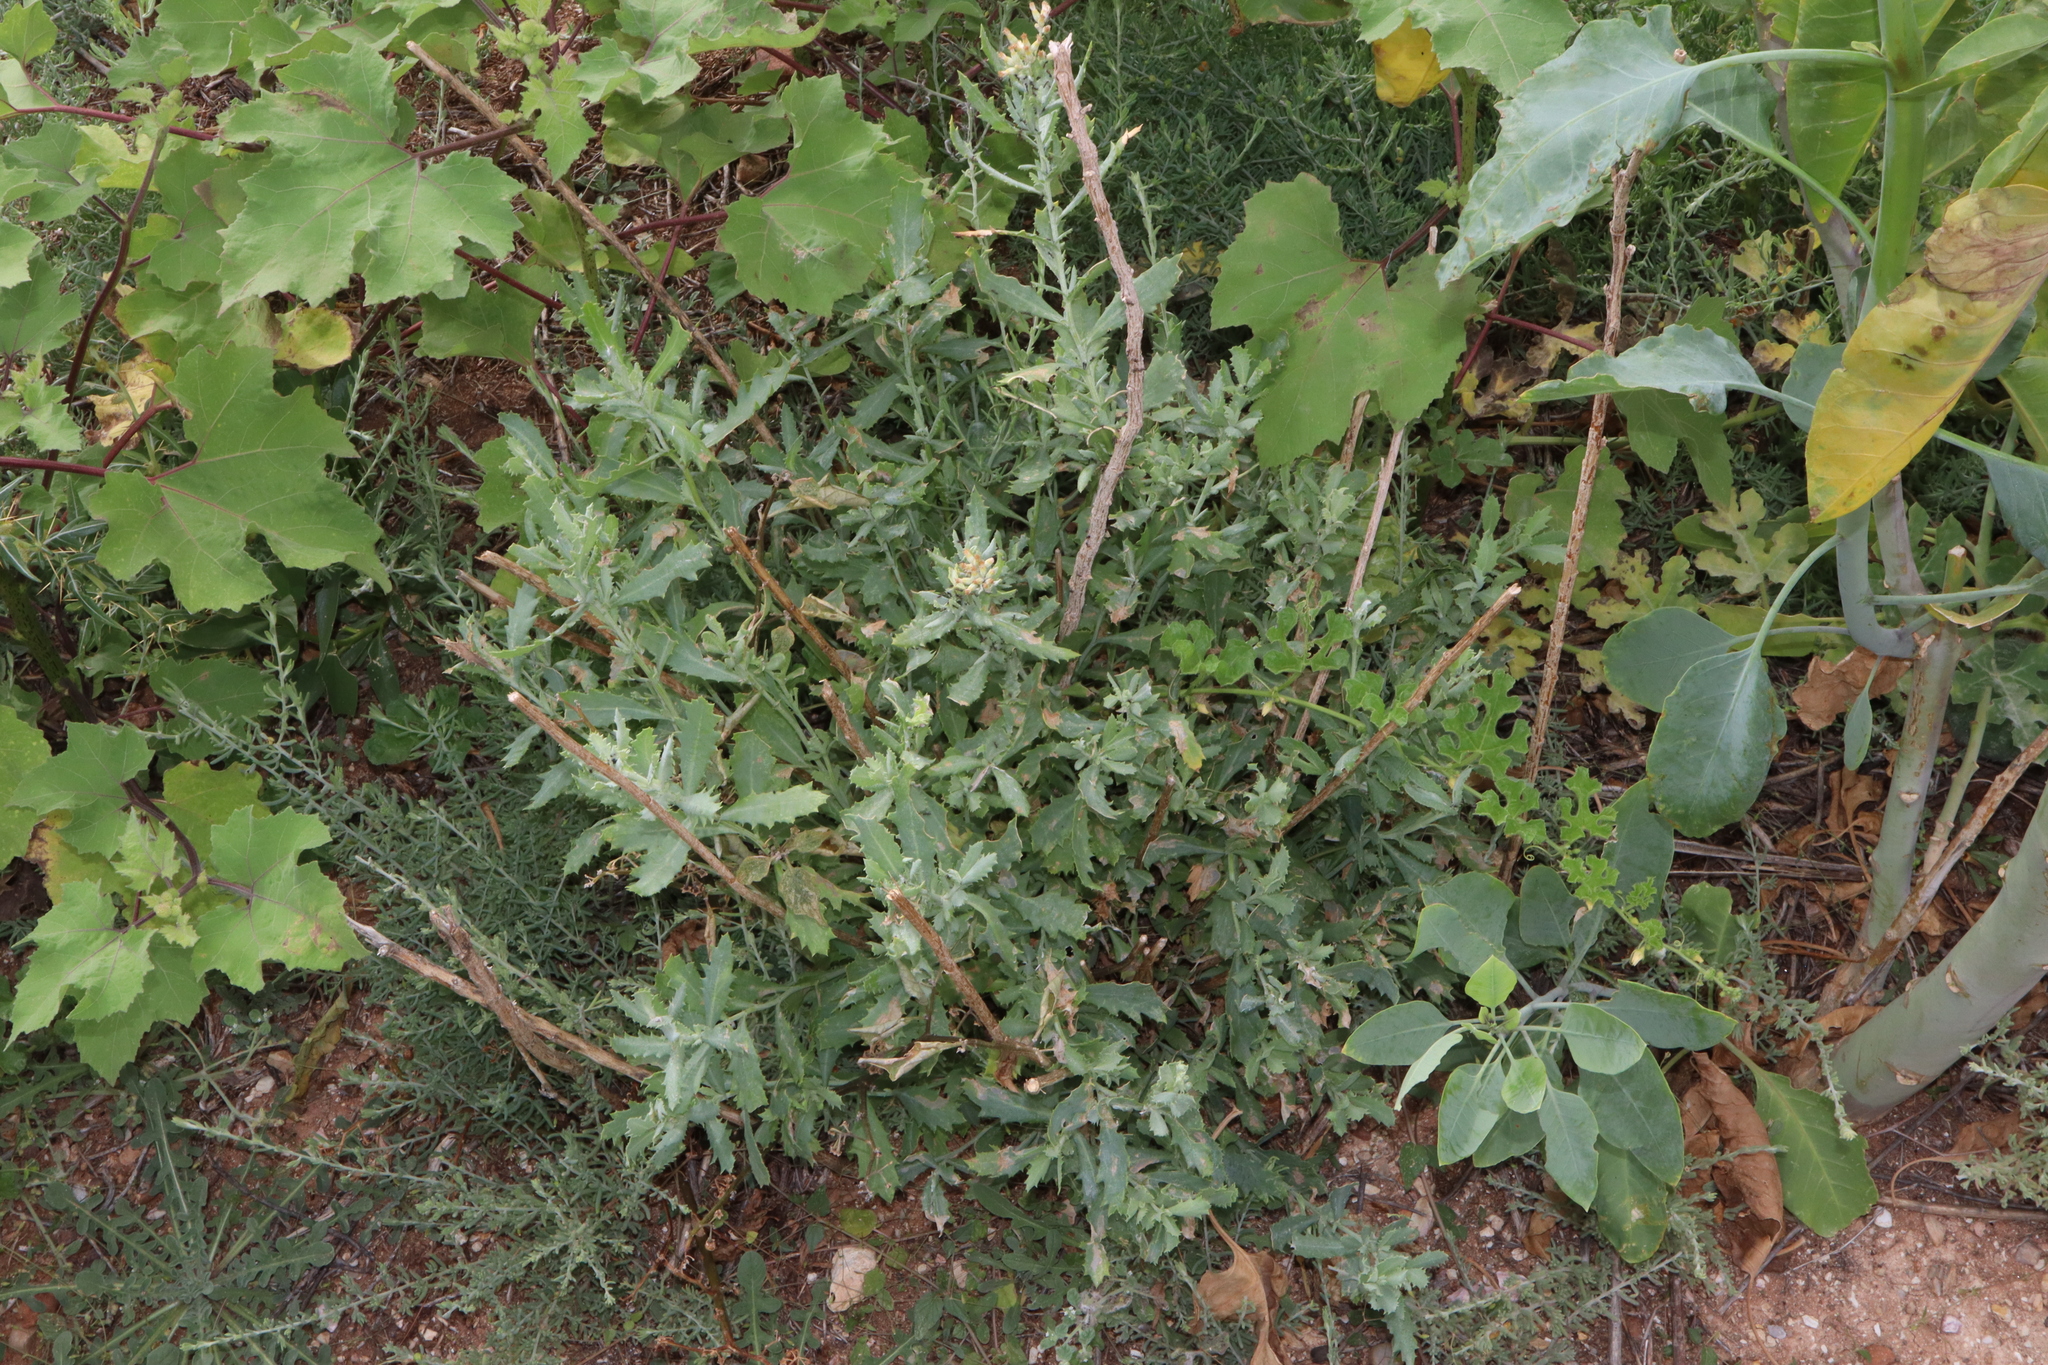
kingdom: Plantae
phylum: Tracheophyta
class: Magnoliopsida
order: Asterales
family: Asteraceae
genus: Senecio
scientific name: Senecio lanibracteus
